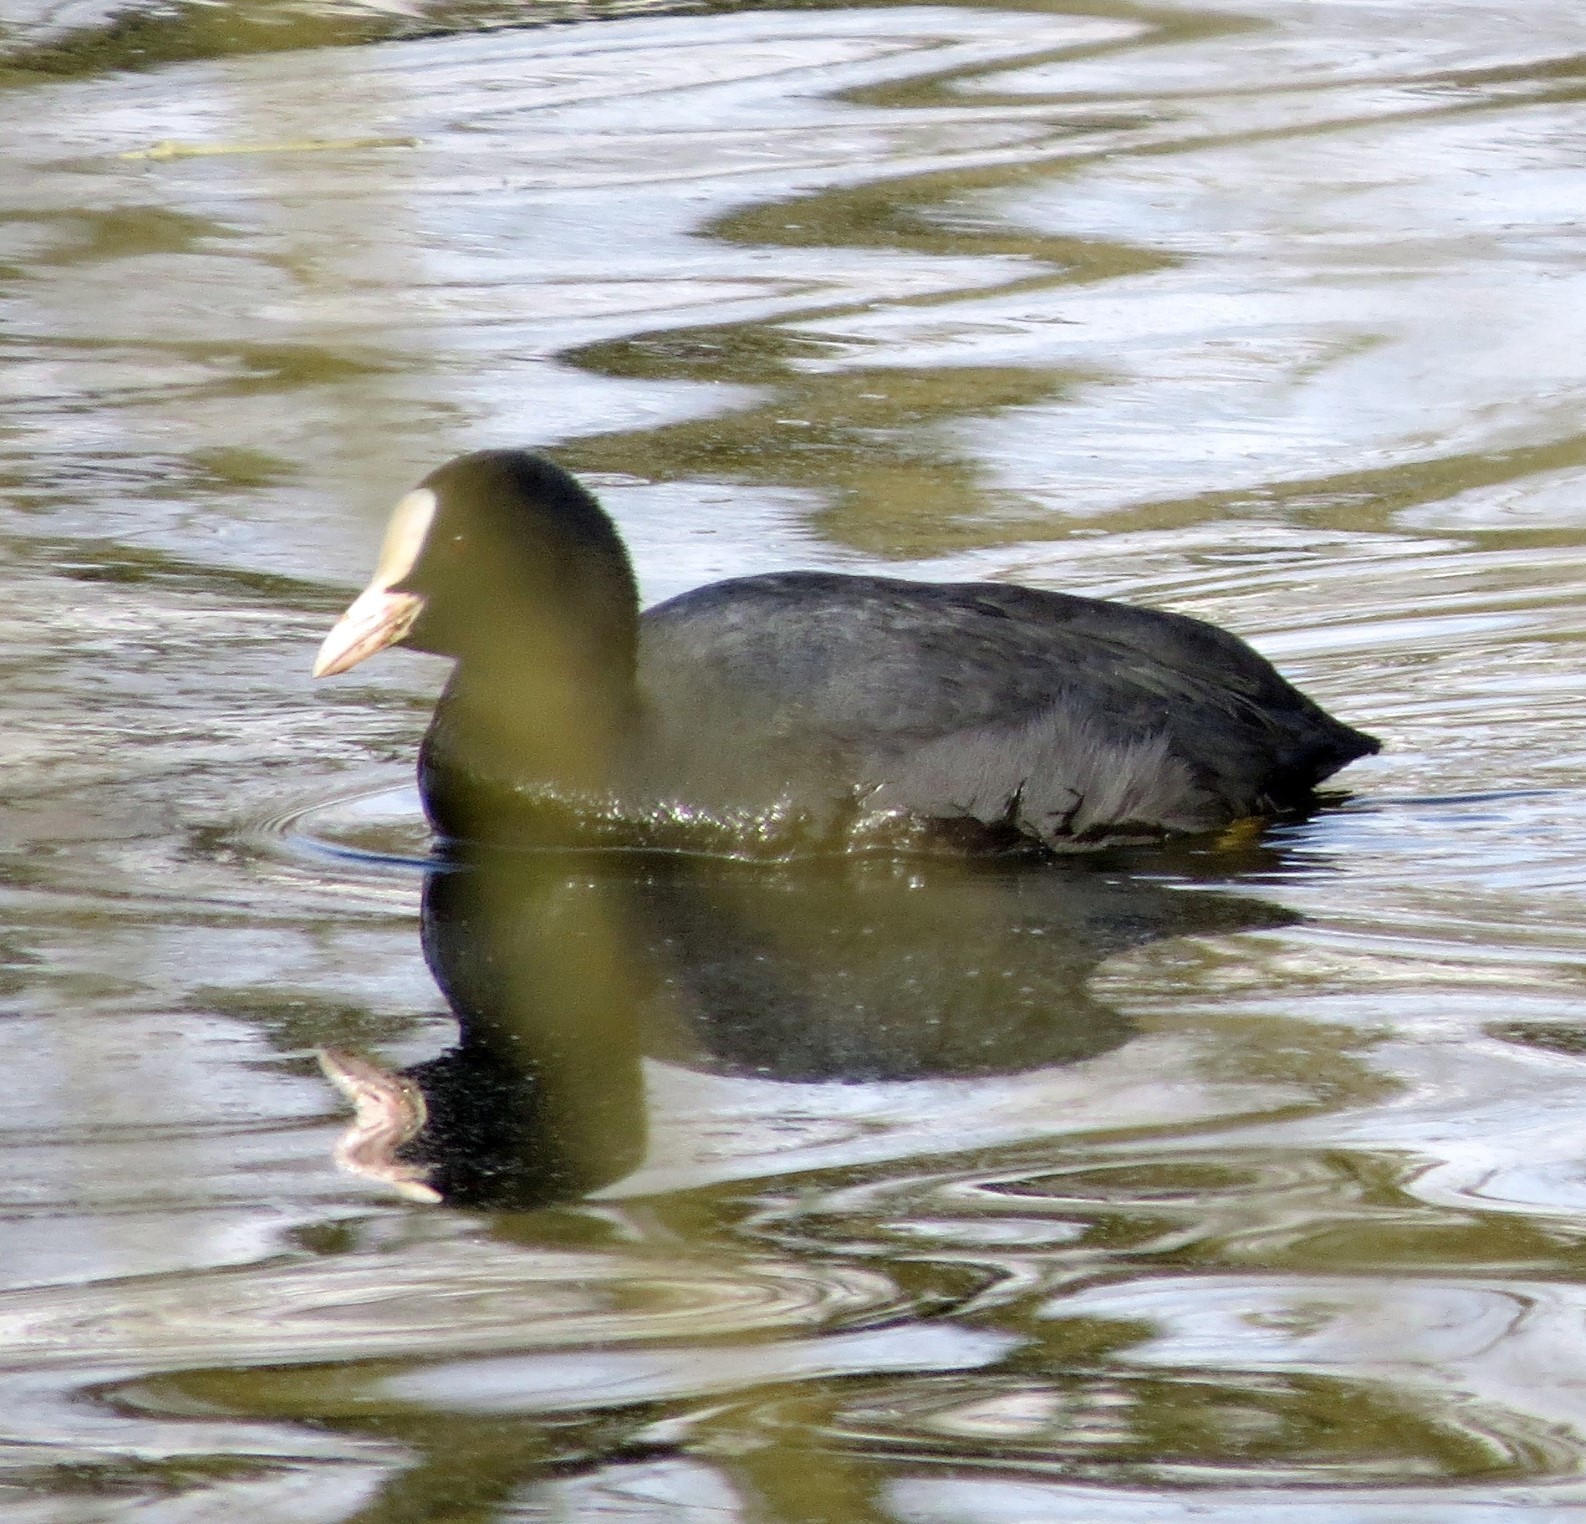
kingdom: Animalia
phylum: Chordata
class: Aves
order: Gruiformes
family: Rallidae
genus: Fulica
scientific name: Fulica atra
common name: Eurasian coot
